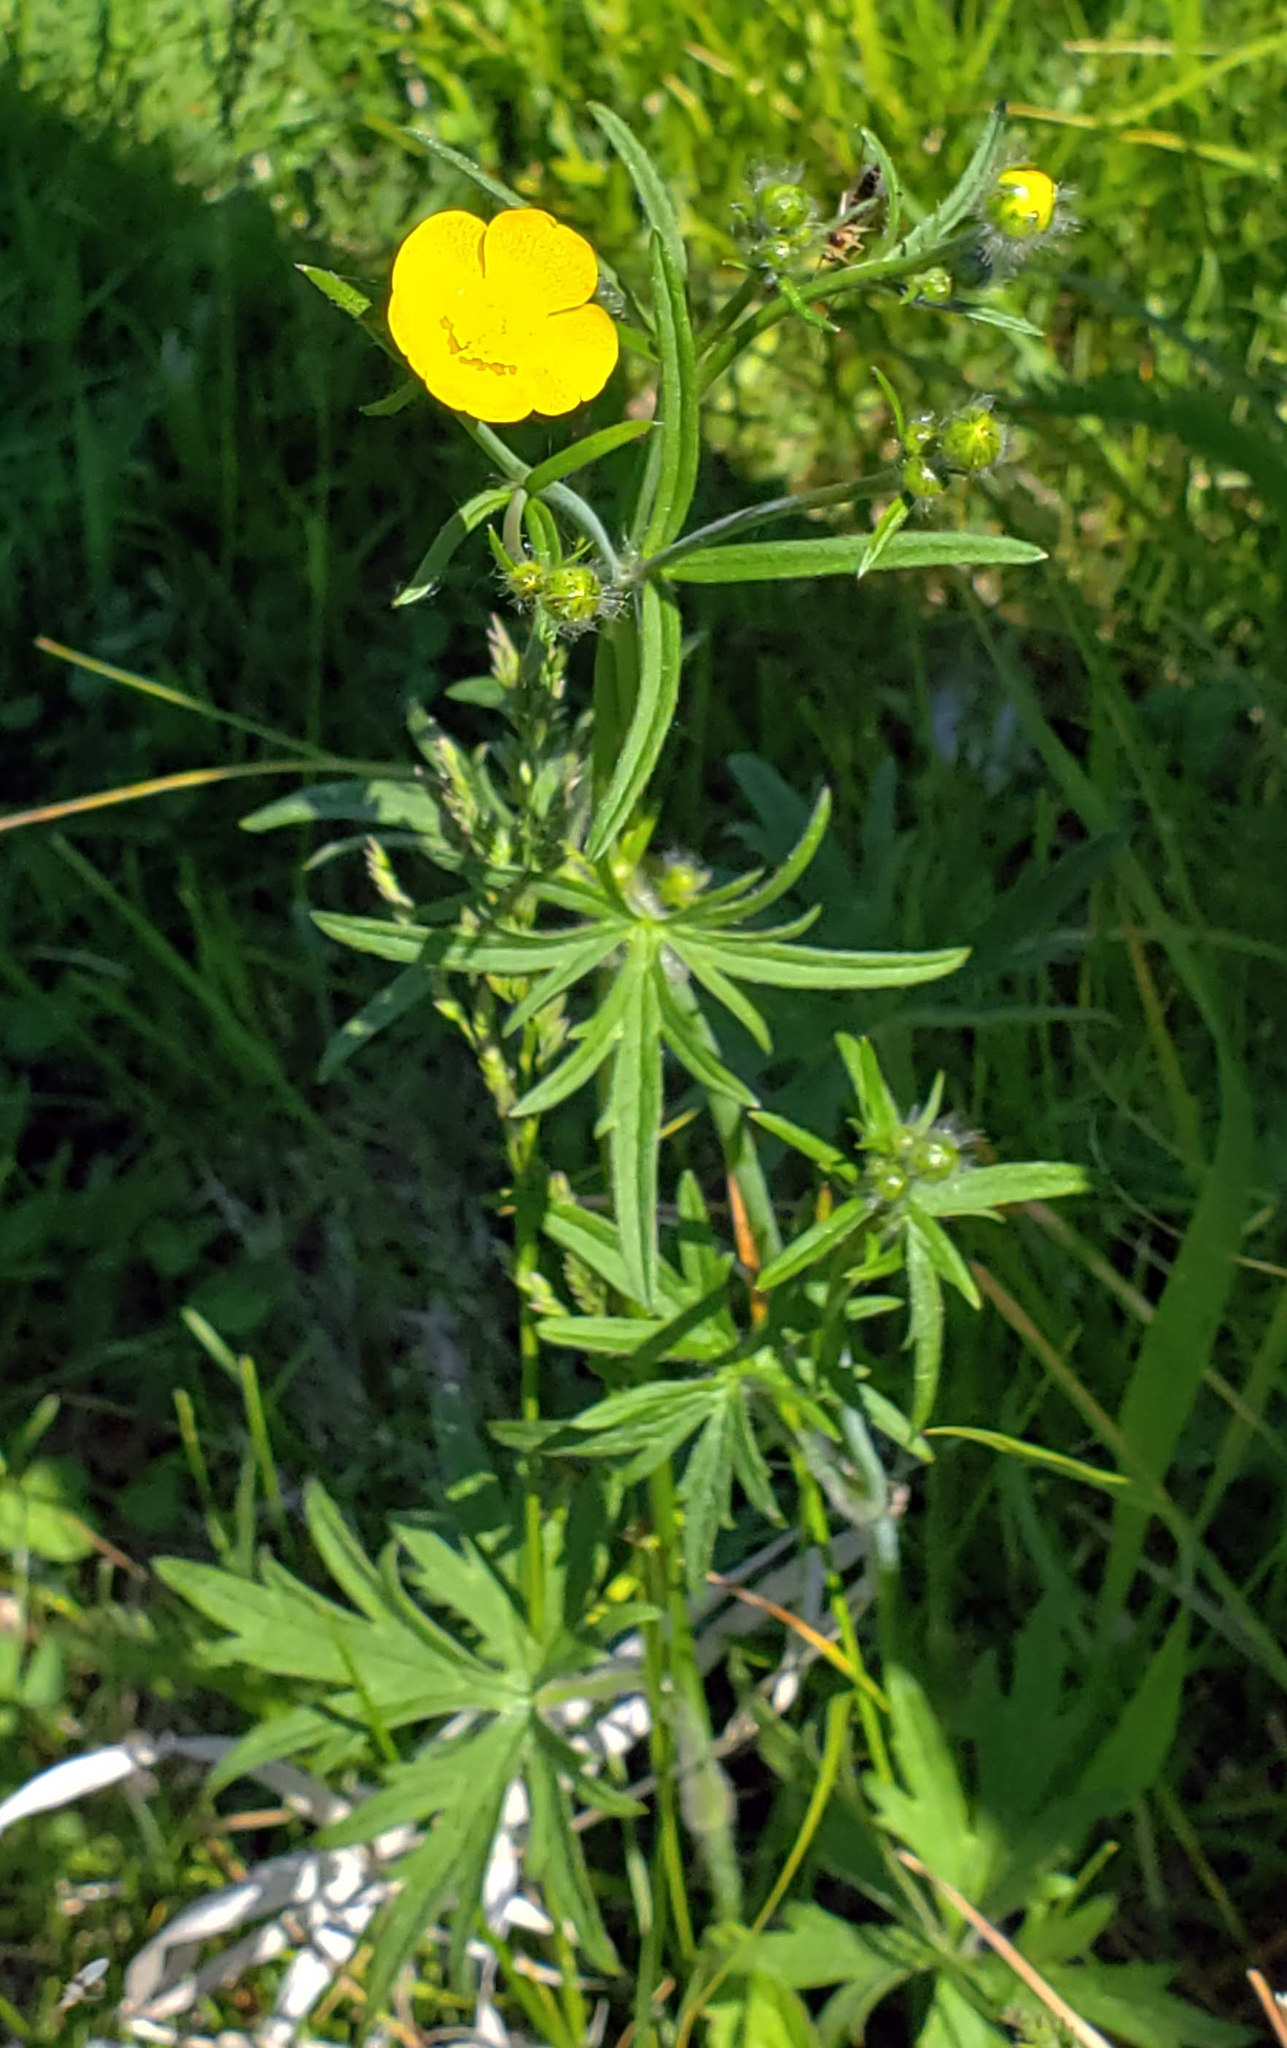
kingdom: Plantae
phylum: Tracheophyta
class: Magnoliopsida
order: Ranunculales
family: Ranunculaceae
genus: Ranunculus
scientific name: Ranunculus acris
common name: Meadow buttercup
